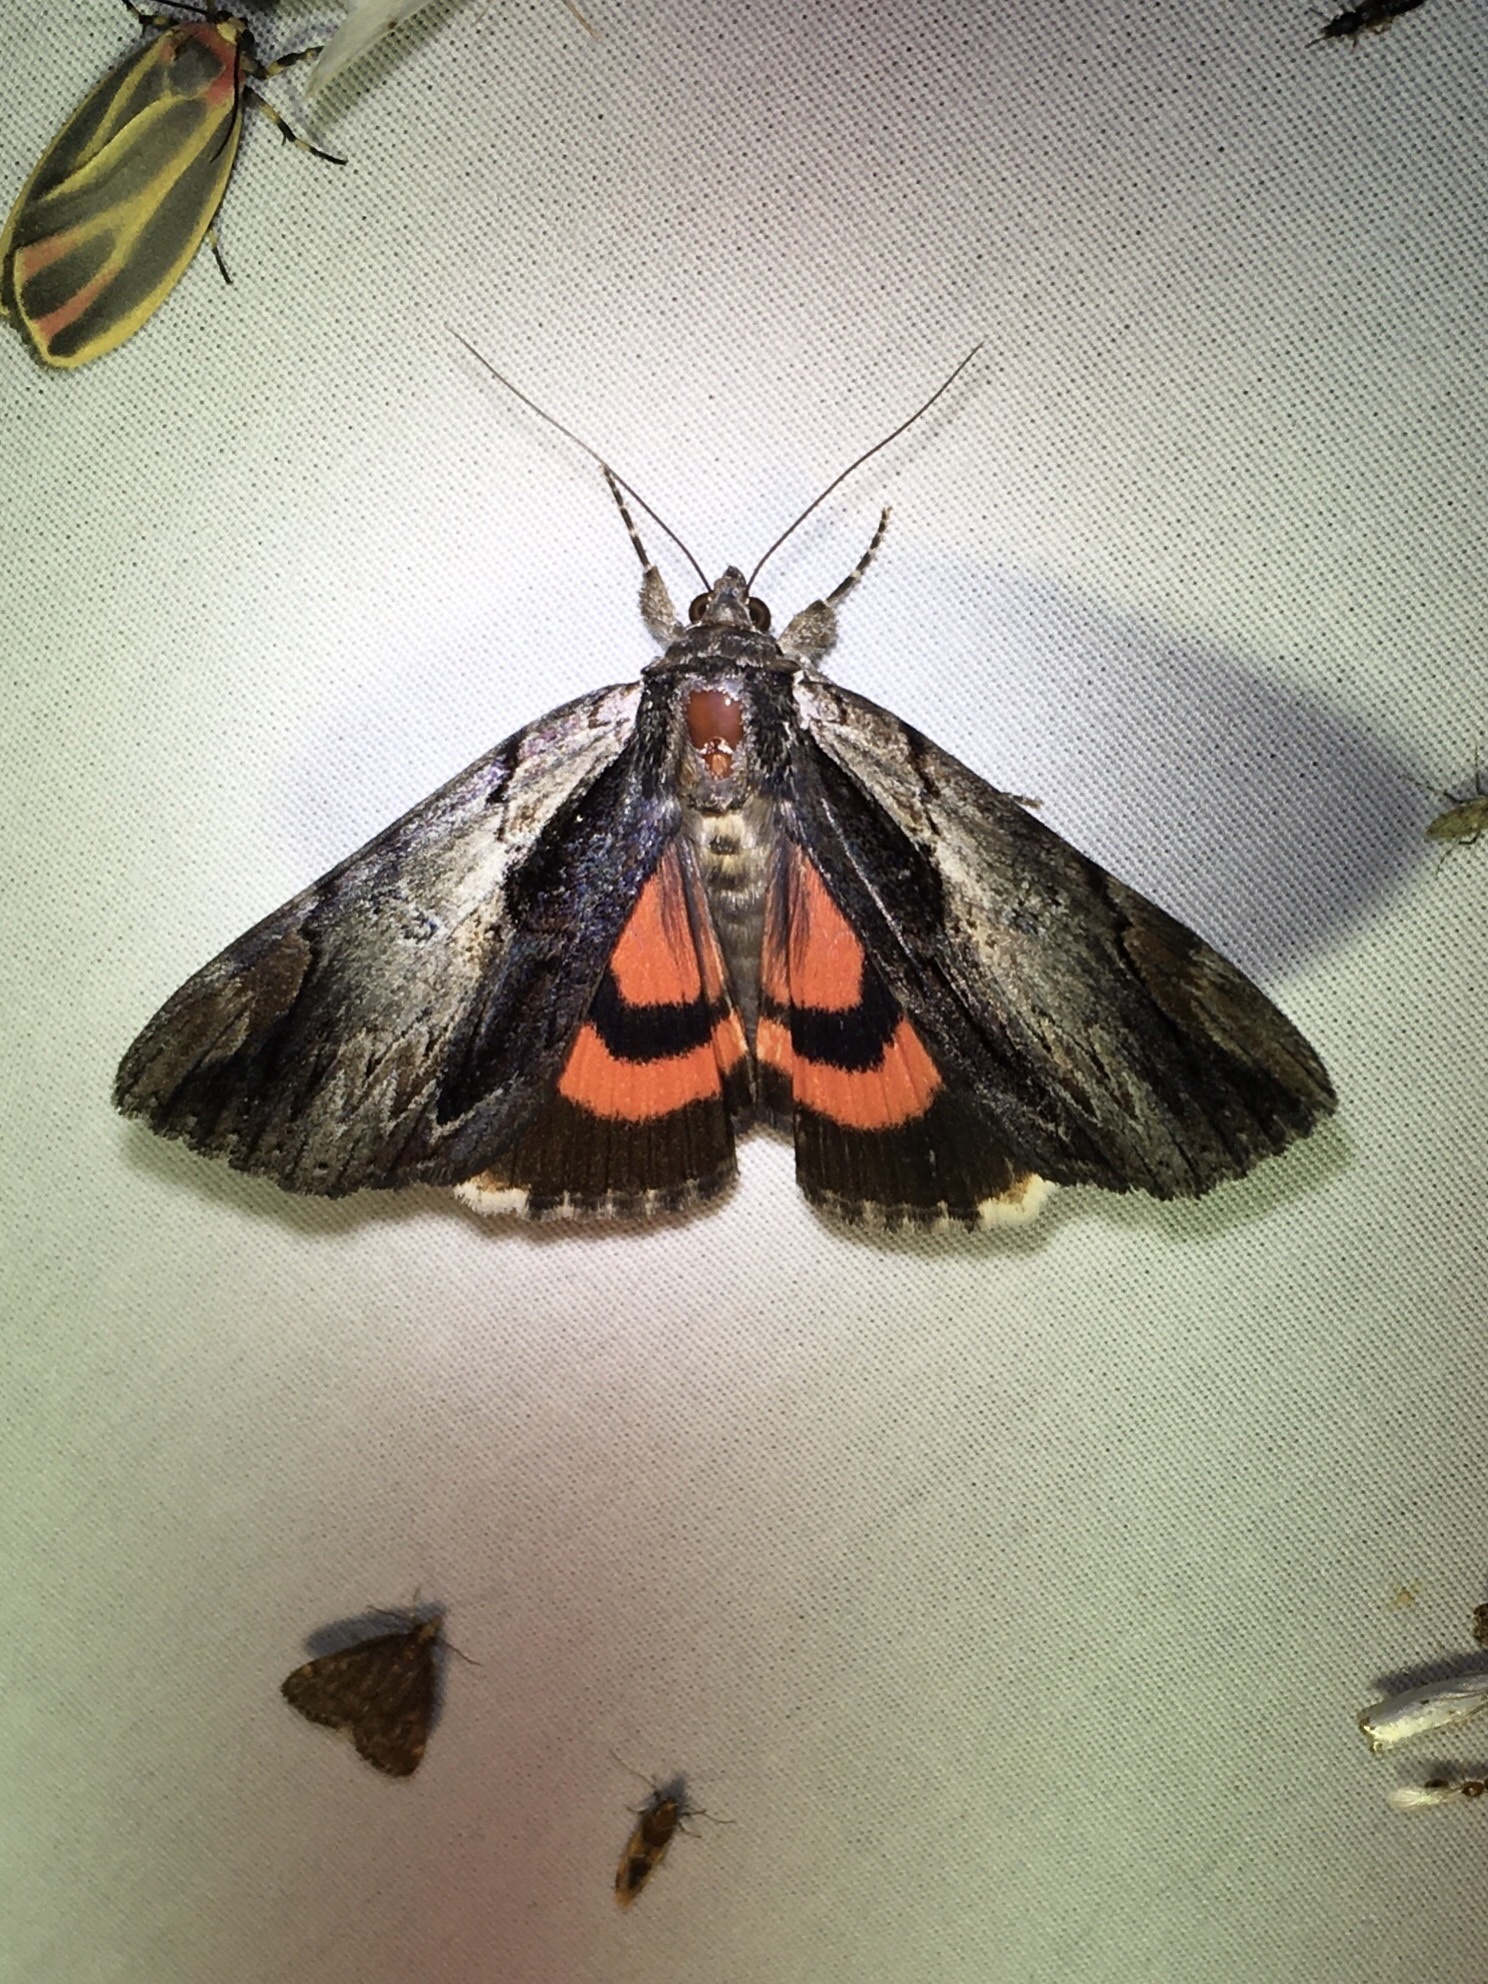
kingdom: Animalia
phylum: Arthropoda
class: Insecta
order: Lepidoptera
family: Erebidae
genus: Catocala
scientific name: Catocala ultronia
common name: Ultronia underwing
